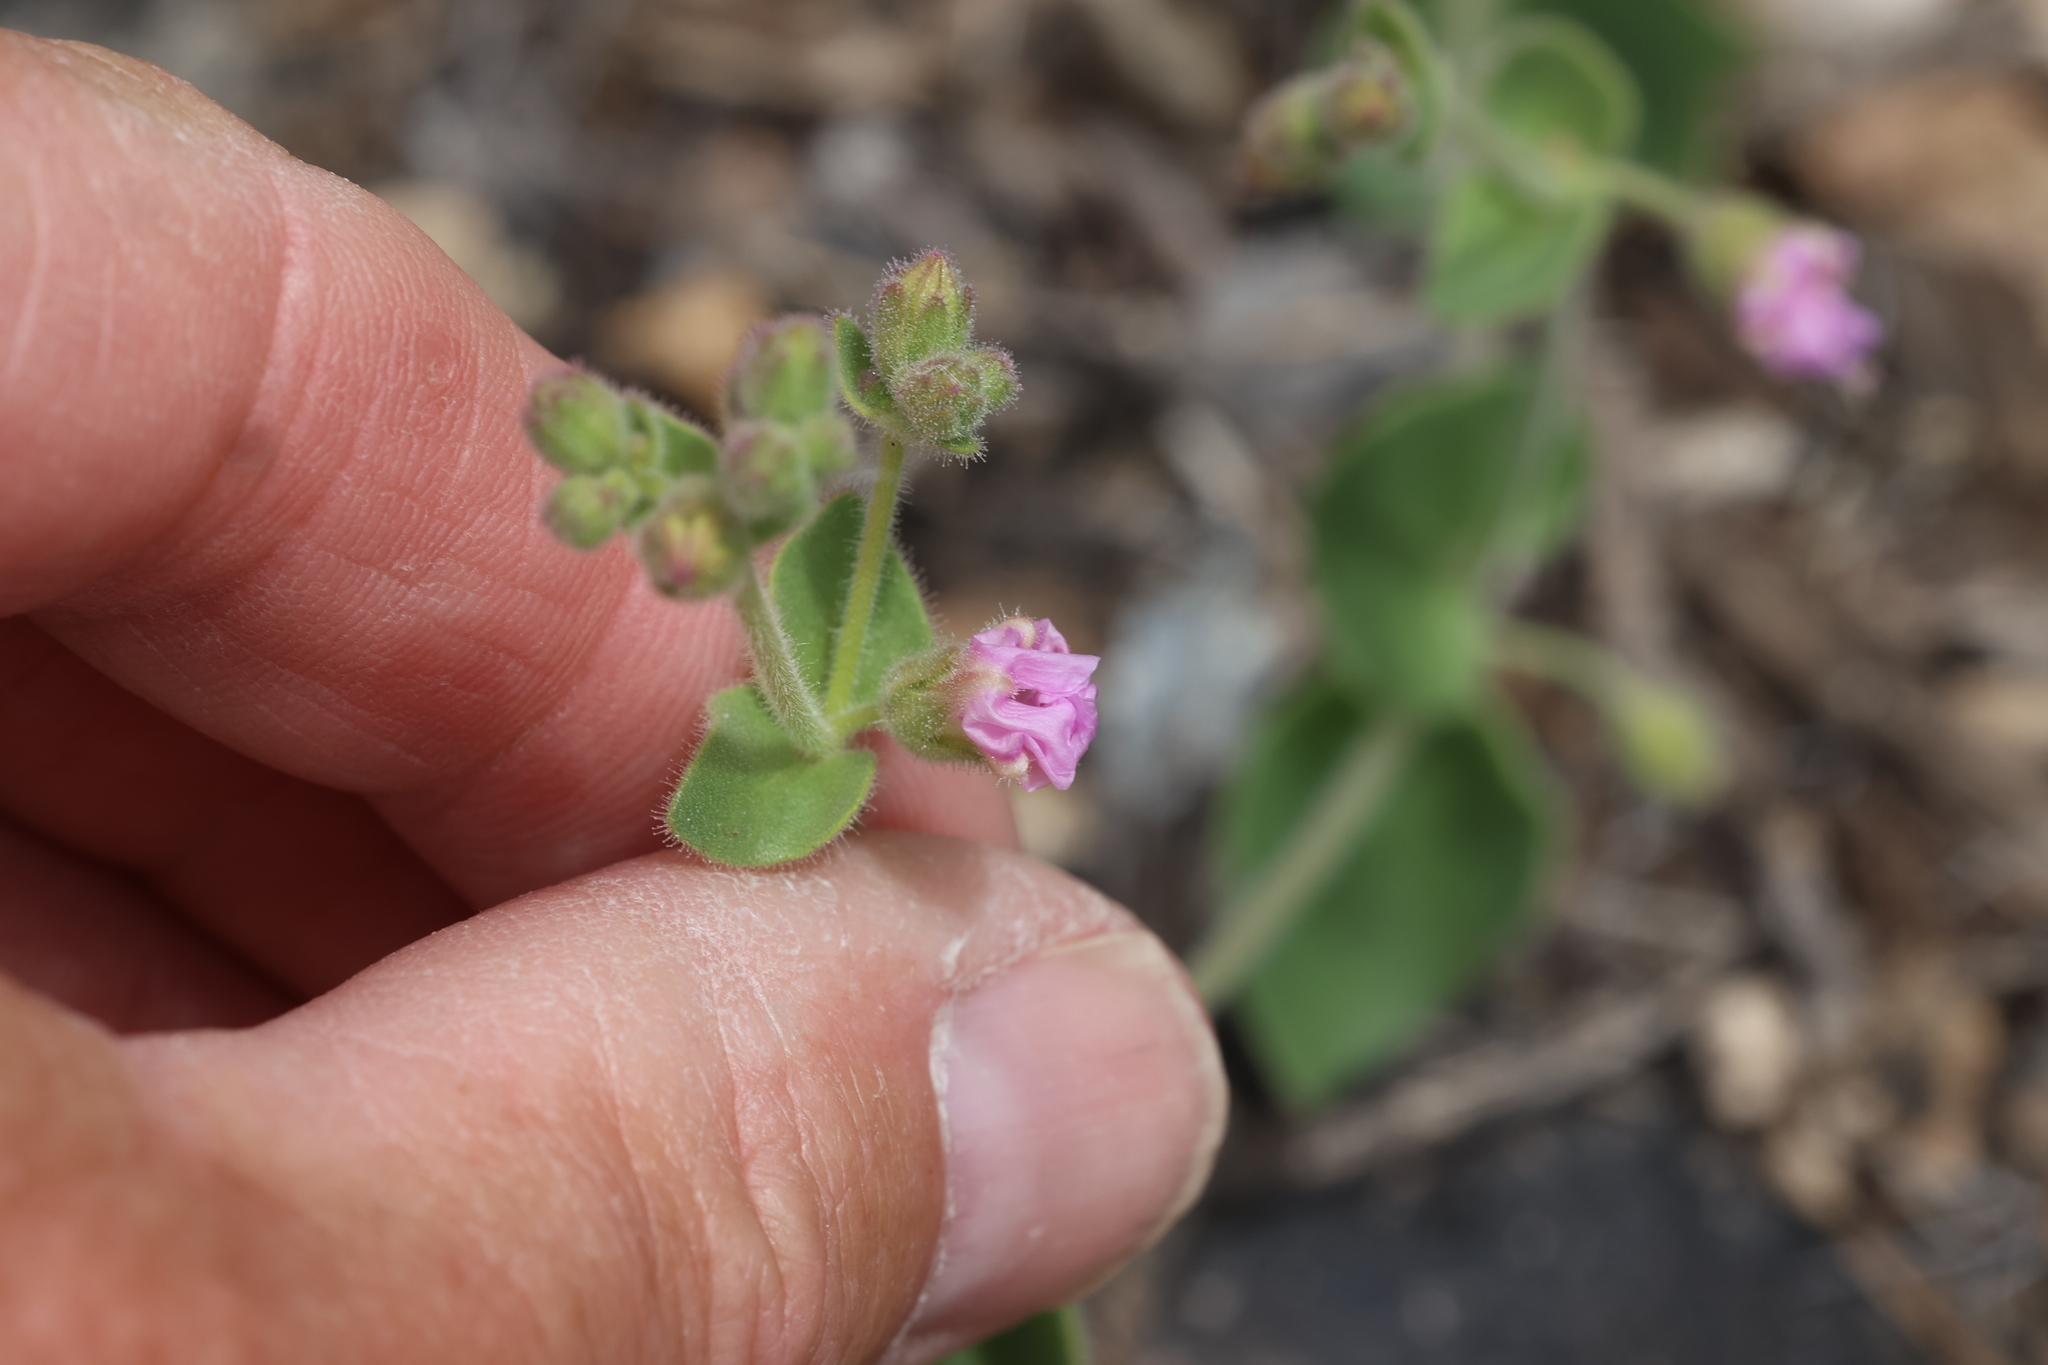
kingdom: Plantae
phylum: Tracheophyta
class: Magnoliopsida
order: Caryophyllales
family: Nyctaginaceae
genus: Mirabilis
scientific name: Mirabilis laevis
